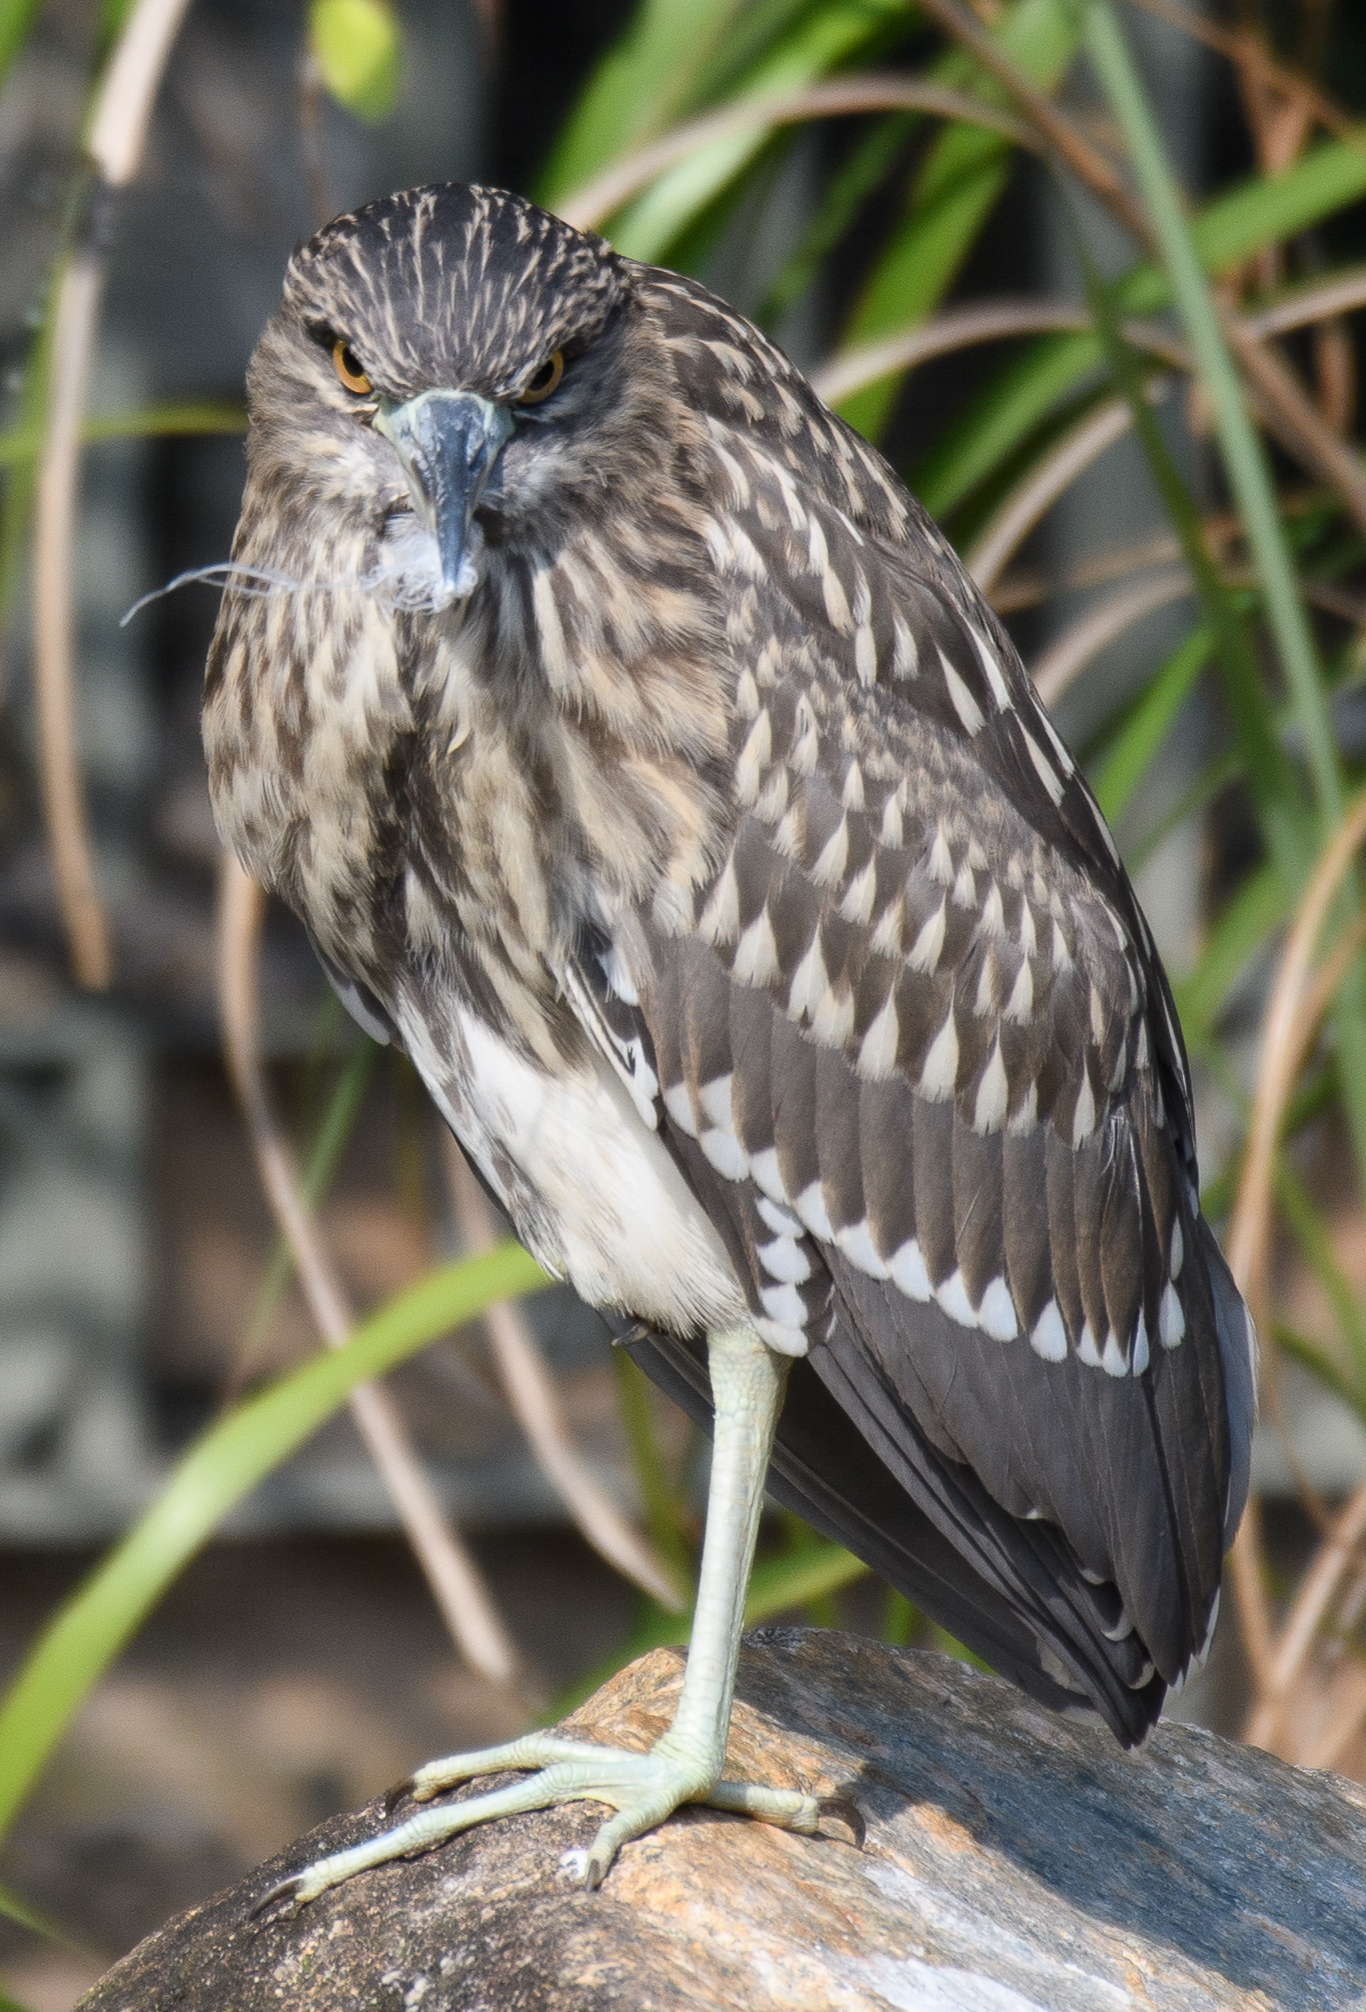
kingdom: Animalia
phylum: Chordata
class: Aves
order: Pelecaniformes
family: Ardeidae
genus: Nycticorax
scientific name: Nycticorax nycticorax
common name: Black-crowned night heron
